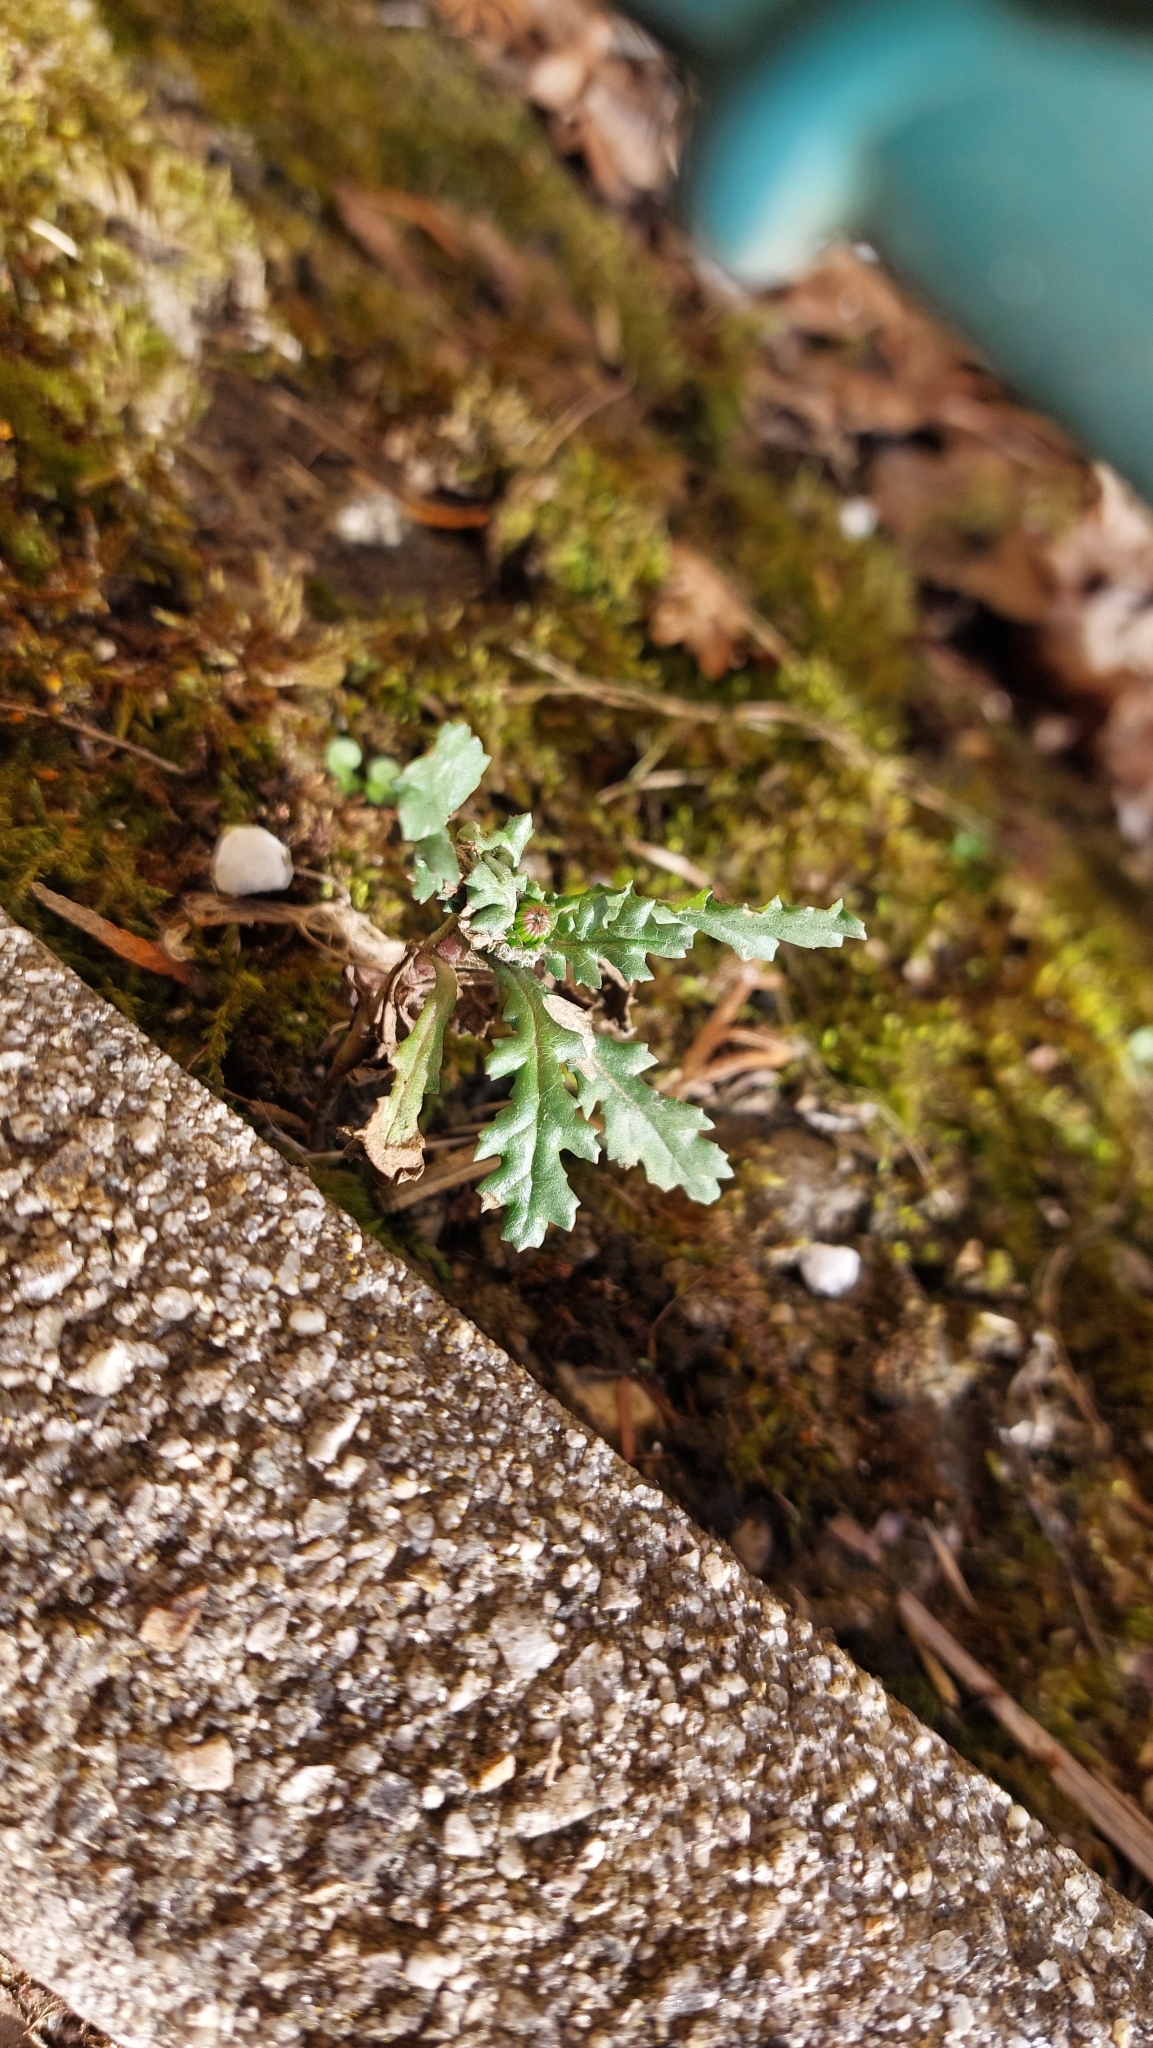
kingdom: Plantae
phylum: Tracheophyta
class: Magnoliopsida
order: Asterales
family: Asteraceae
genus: Senecio
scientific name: Senecio vulgaris
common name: Old-man-in-the-spring
